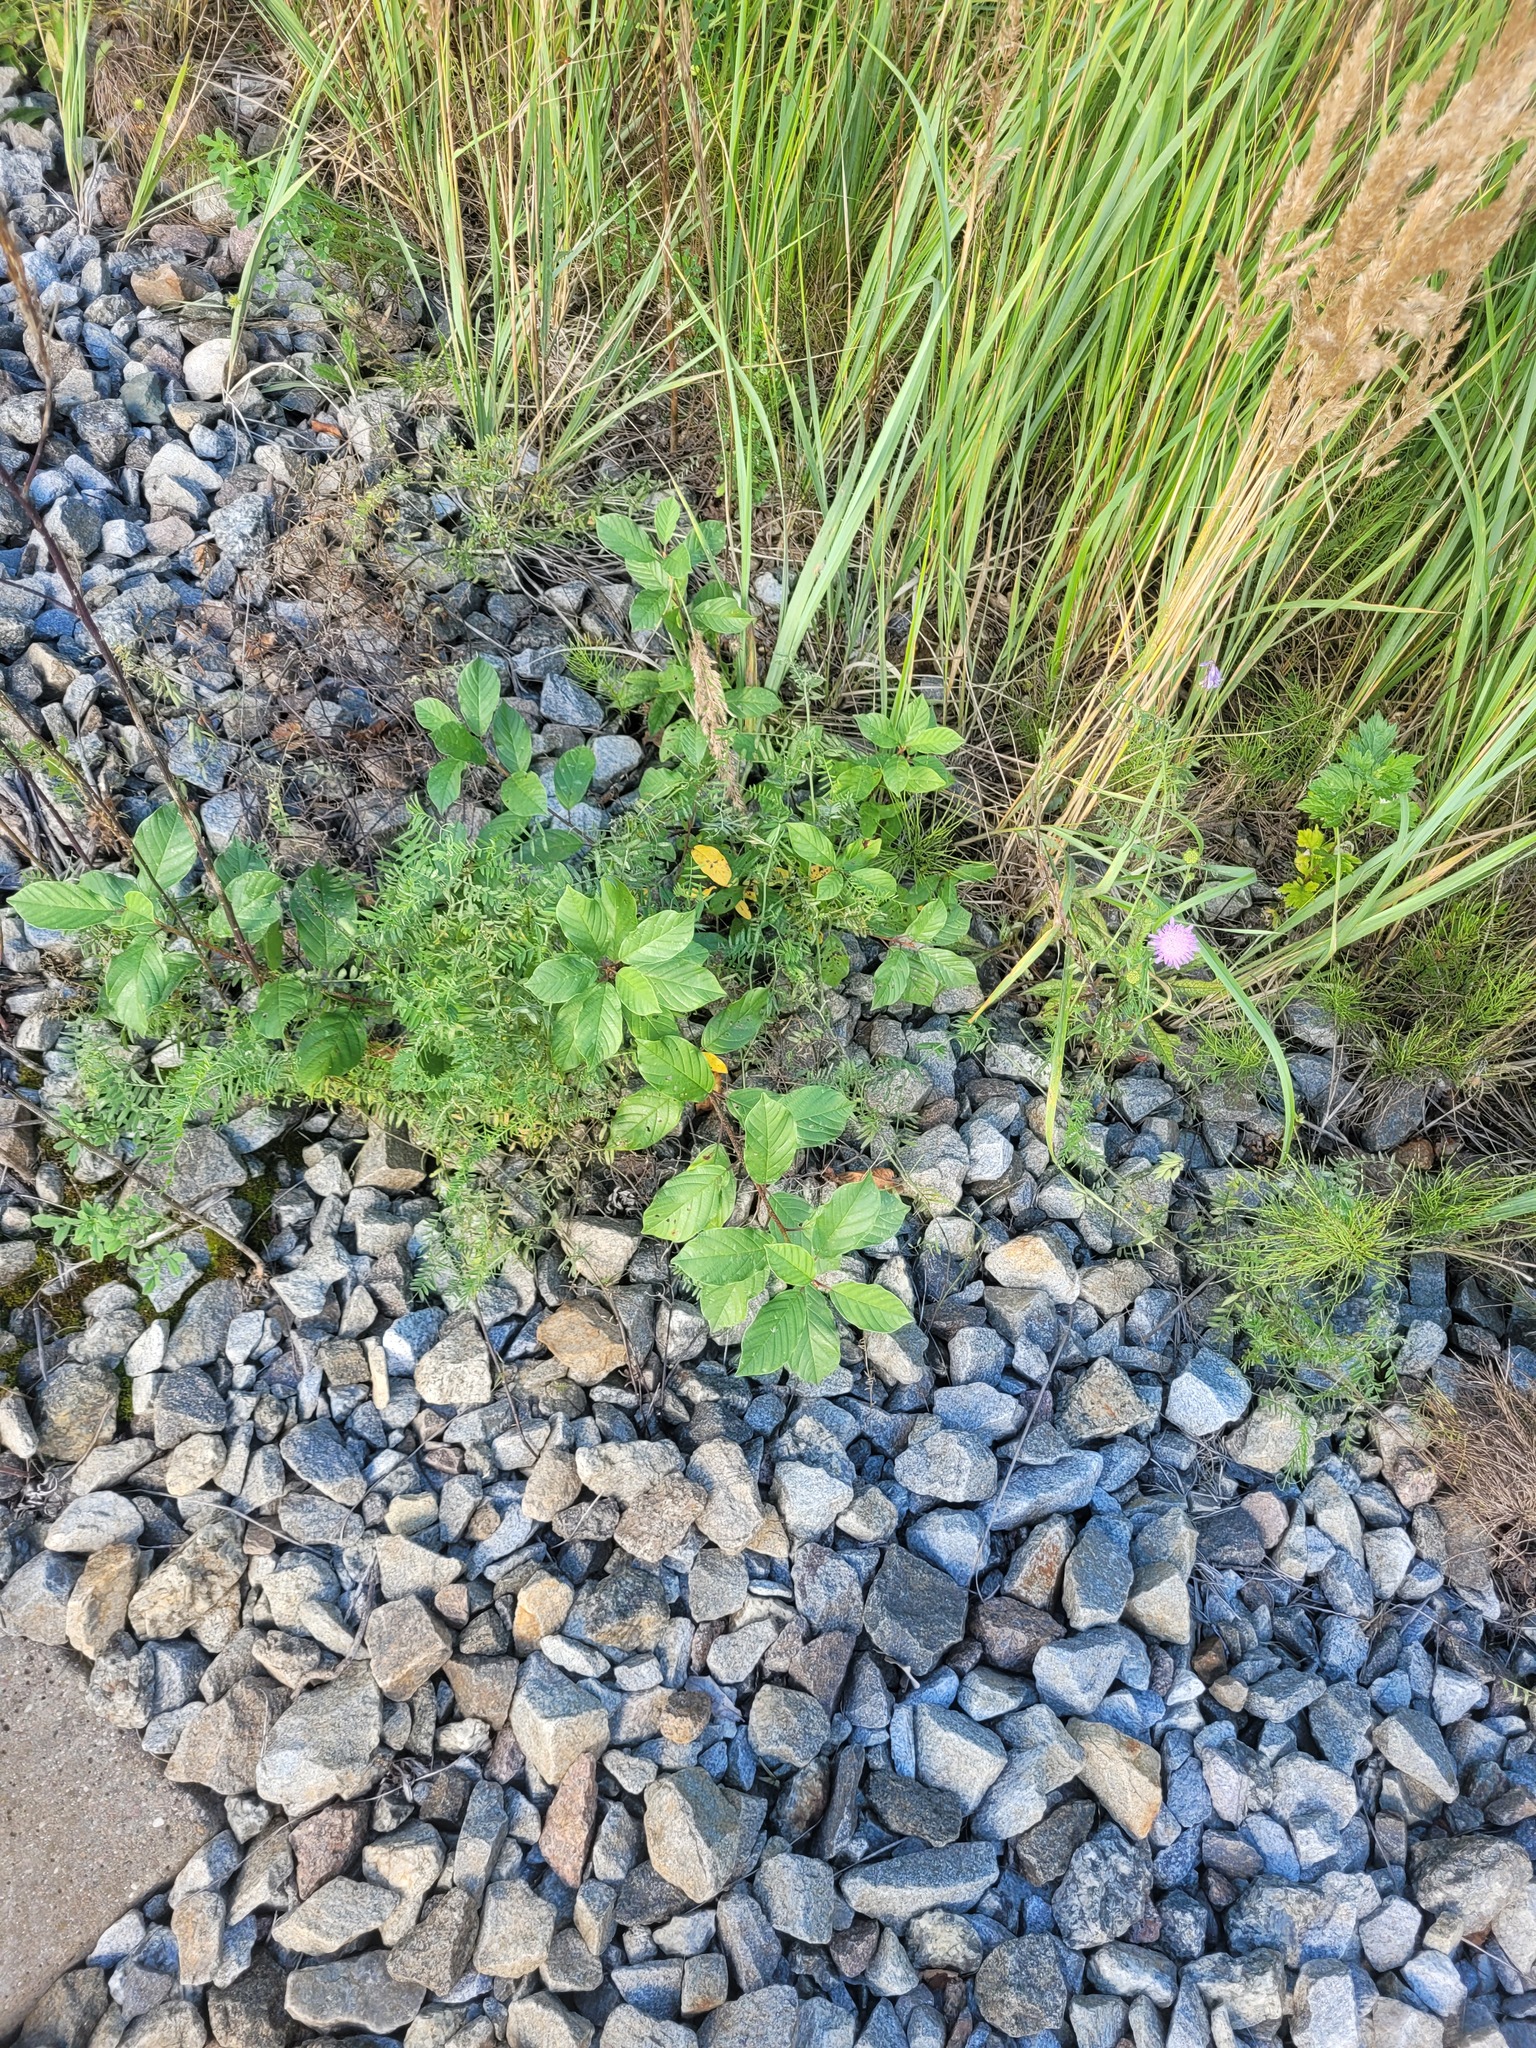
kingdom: Plantae
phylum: Tracheophyta
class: Magnoliopsida
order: Rosales
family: Rhamnaceae
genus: Frangula
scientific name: Frangula alnus
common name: Alder buckthorn
